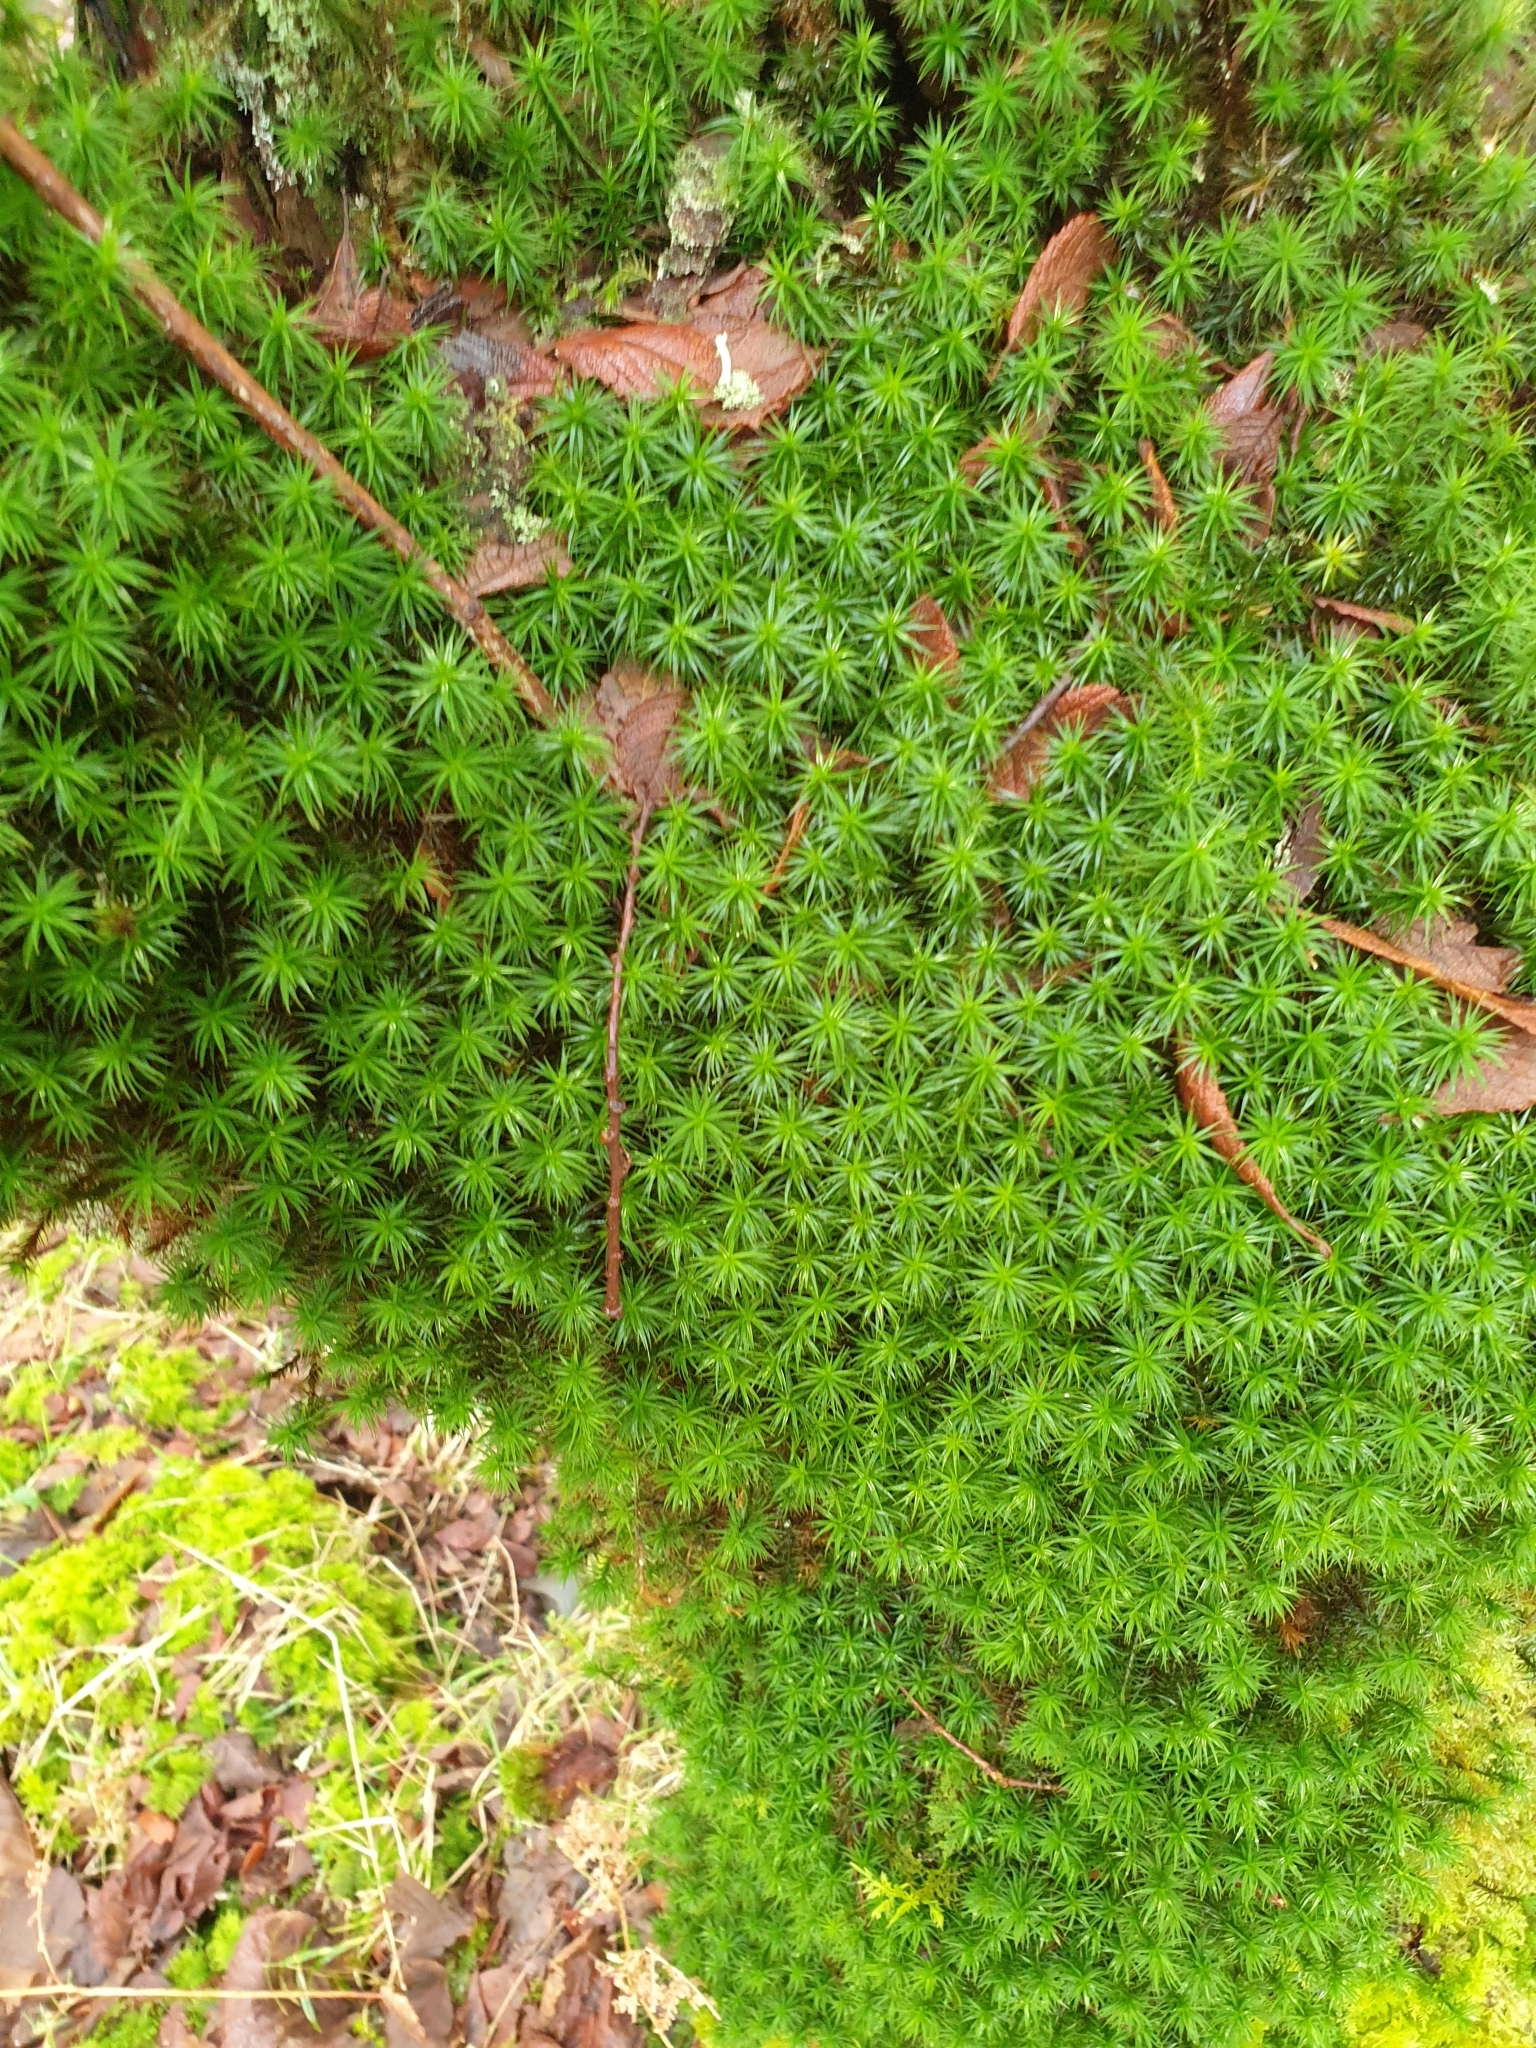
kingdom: Plantae
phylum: Bryophyta
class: Polytrichopsida
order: Polytrichales
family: Polytrichaceae
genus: Polytrichum
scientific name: Polytrichum formosum
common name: Bank haircap moss
